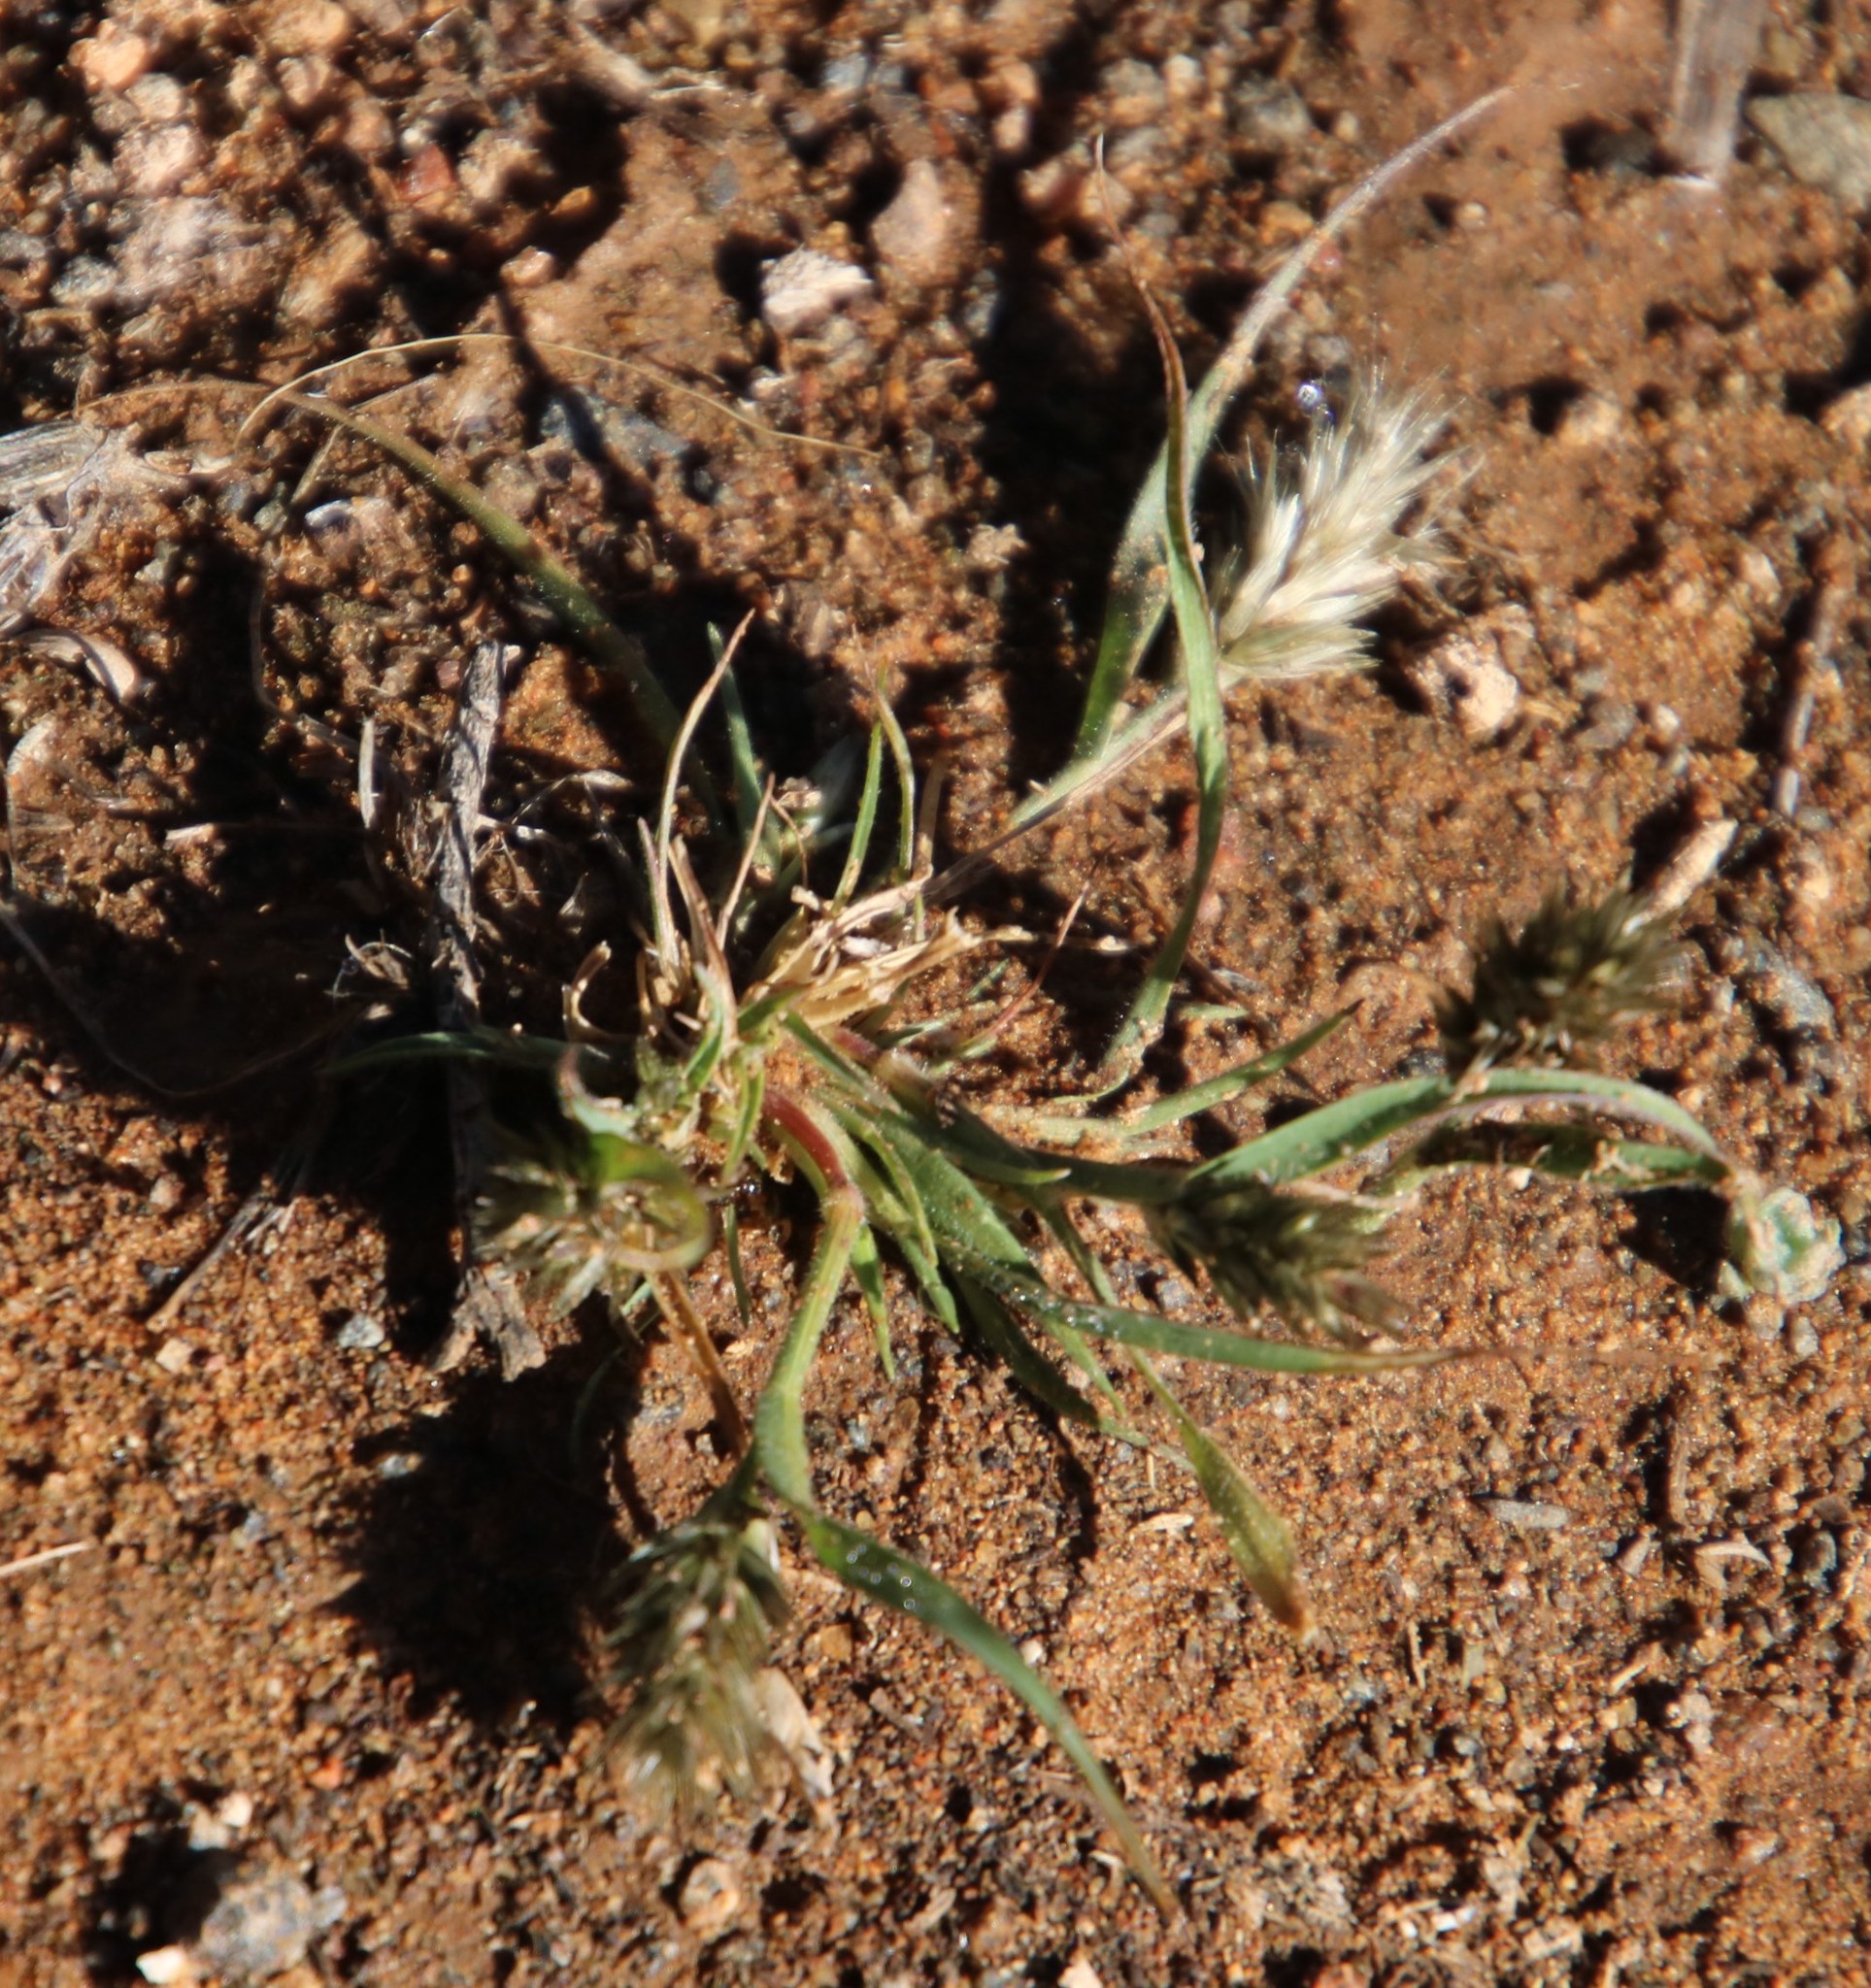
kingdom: Plantae
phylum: Tracheophyta
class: Liliopsida
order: Poales
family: Poaceae
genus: Enneapogon
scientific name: Enneapogon scaber
